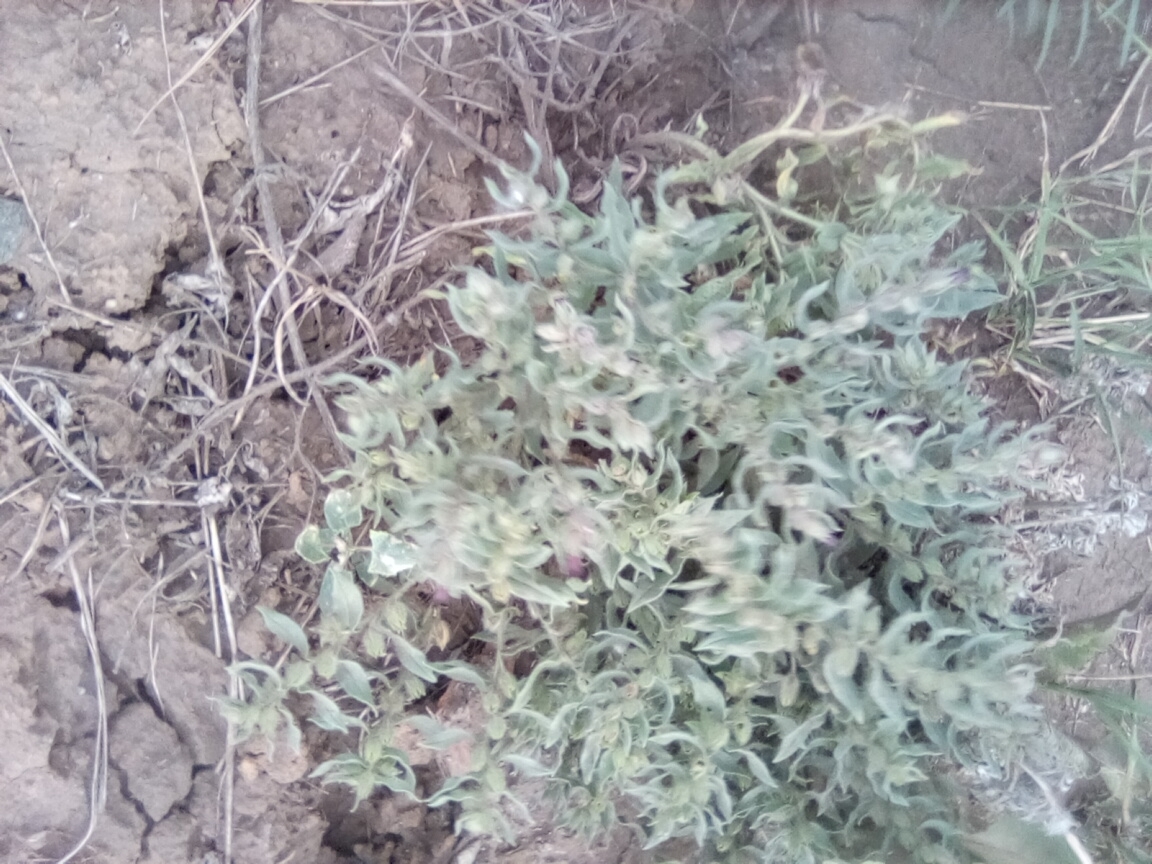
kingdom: Plantae
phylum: Tracheophyta
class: Magnoliopsida
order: Boraginales
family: Boraginaceae
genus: Nonea
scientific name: Nonea pulla
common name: Brown nonea
